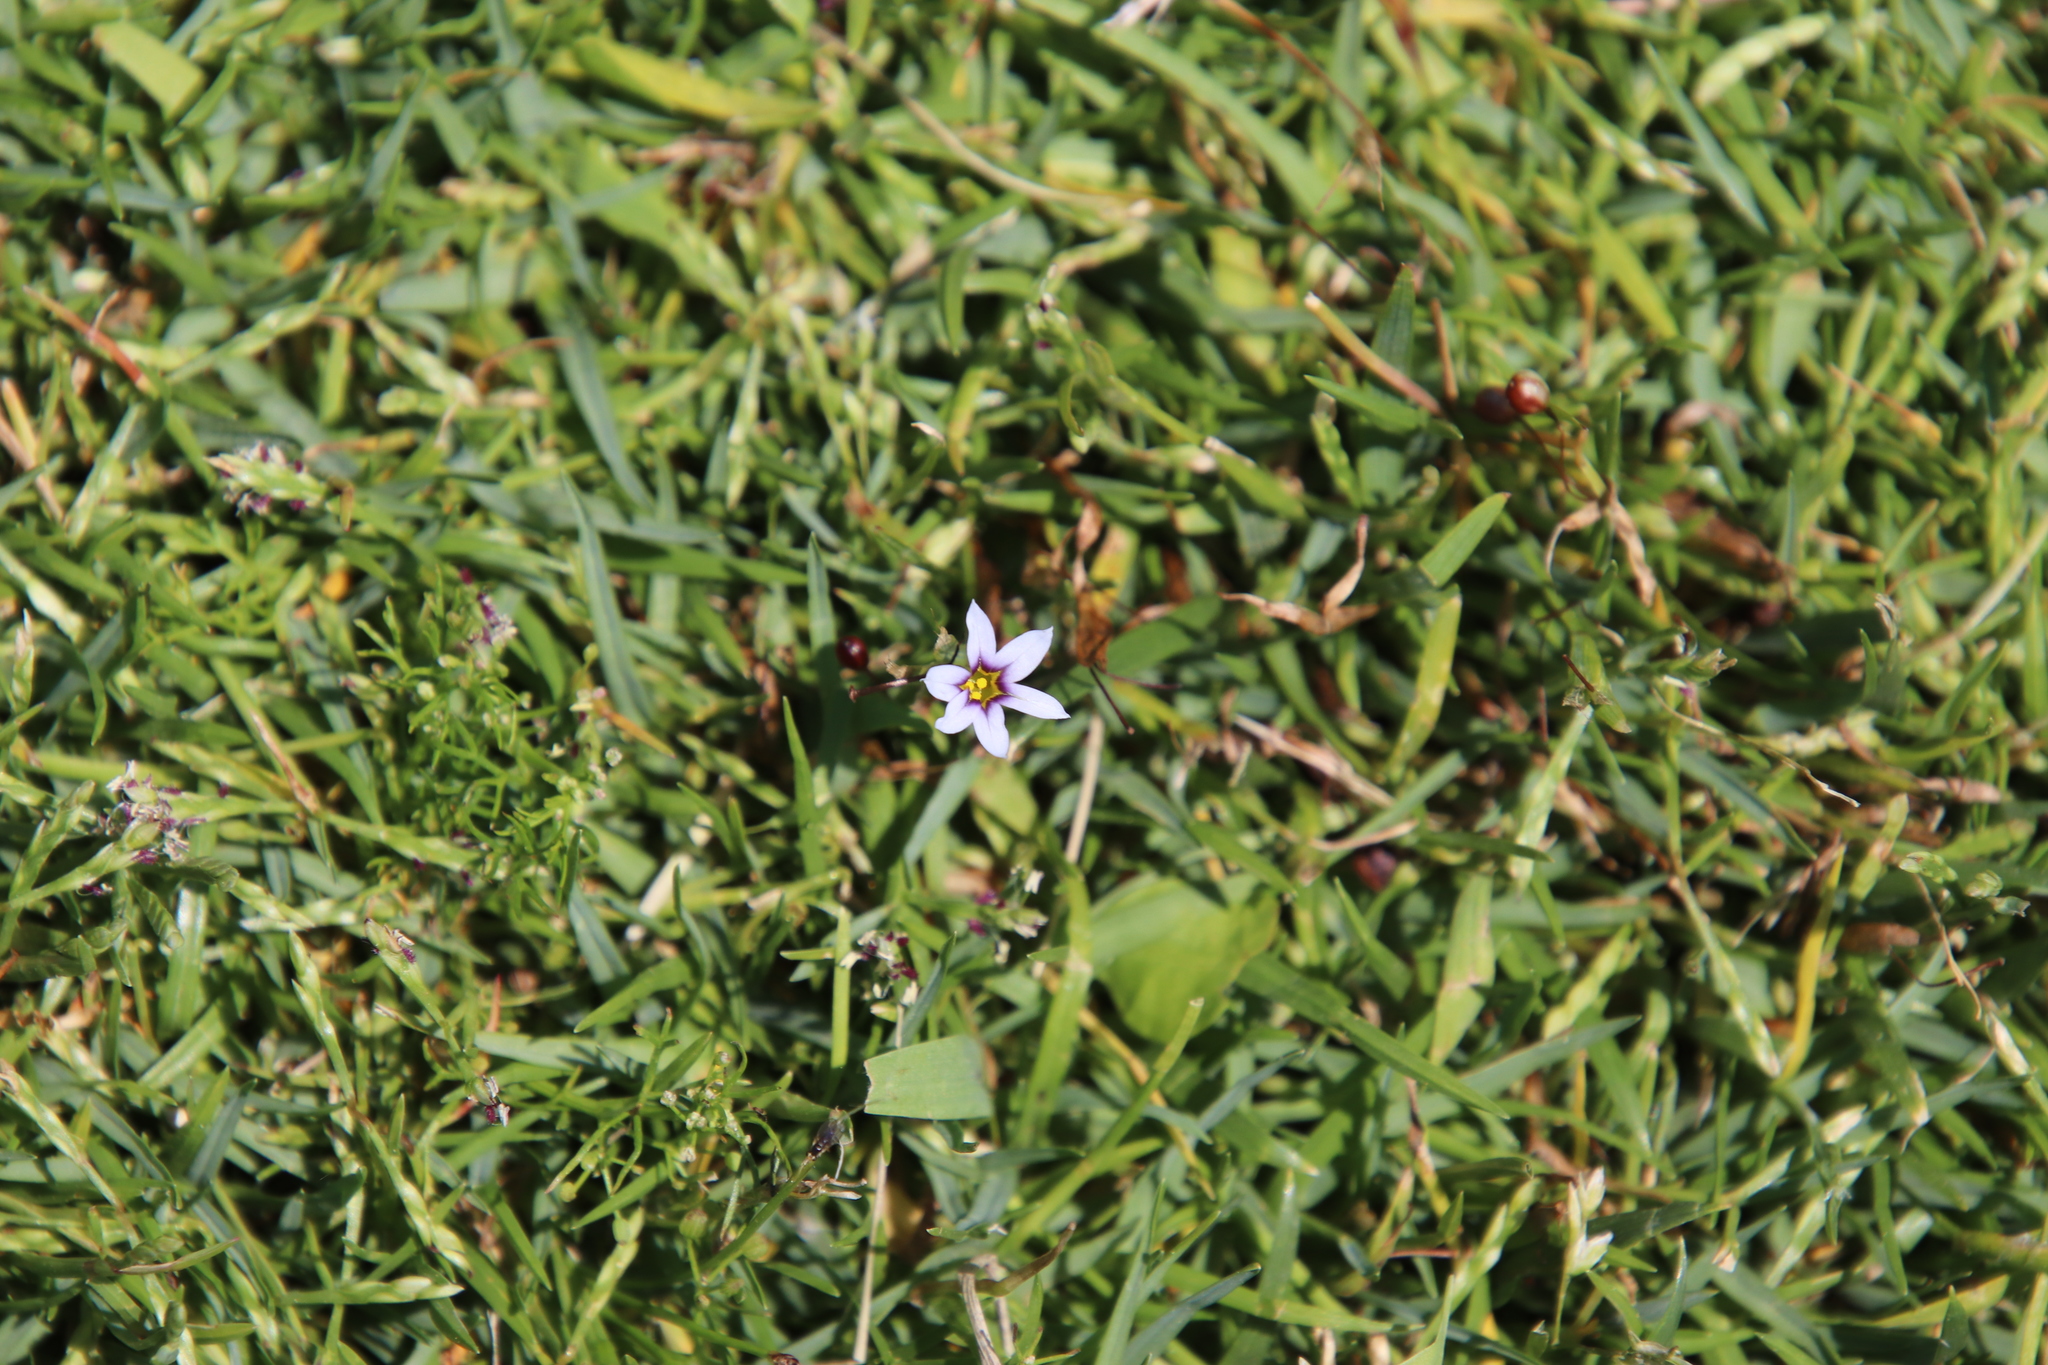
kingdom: Plantae
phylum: Tracheophyta
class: Liliopsida
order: Asparagales
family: Iridaceae
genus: Sisyrinchium
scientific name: Sisyrinchium micranthum
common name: Bermuda pigroot
